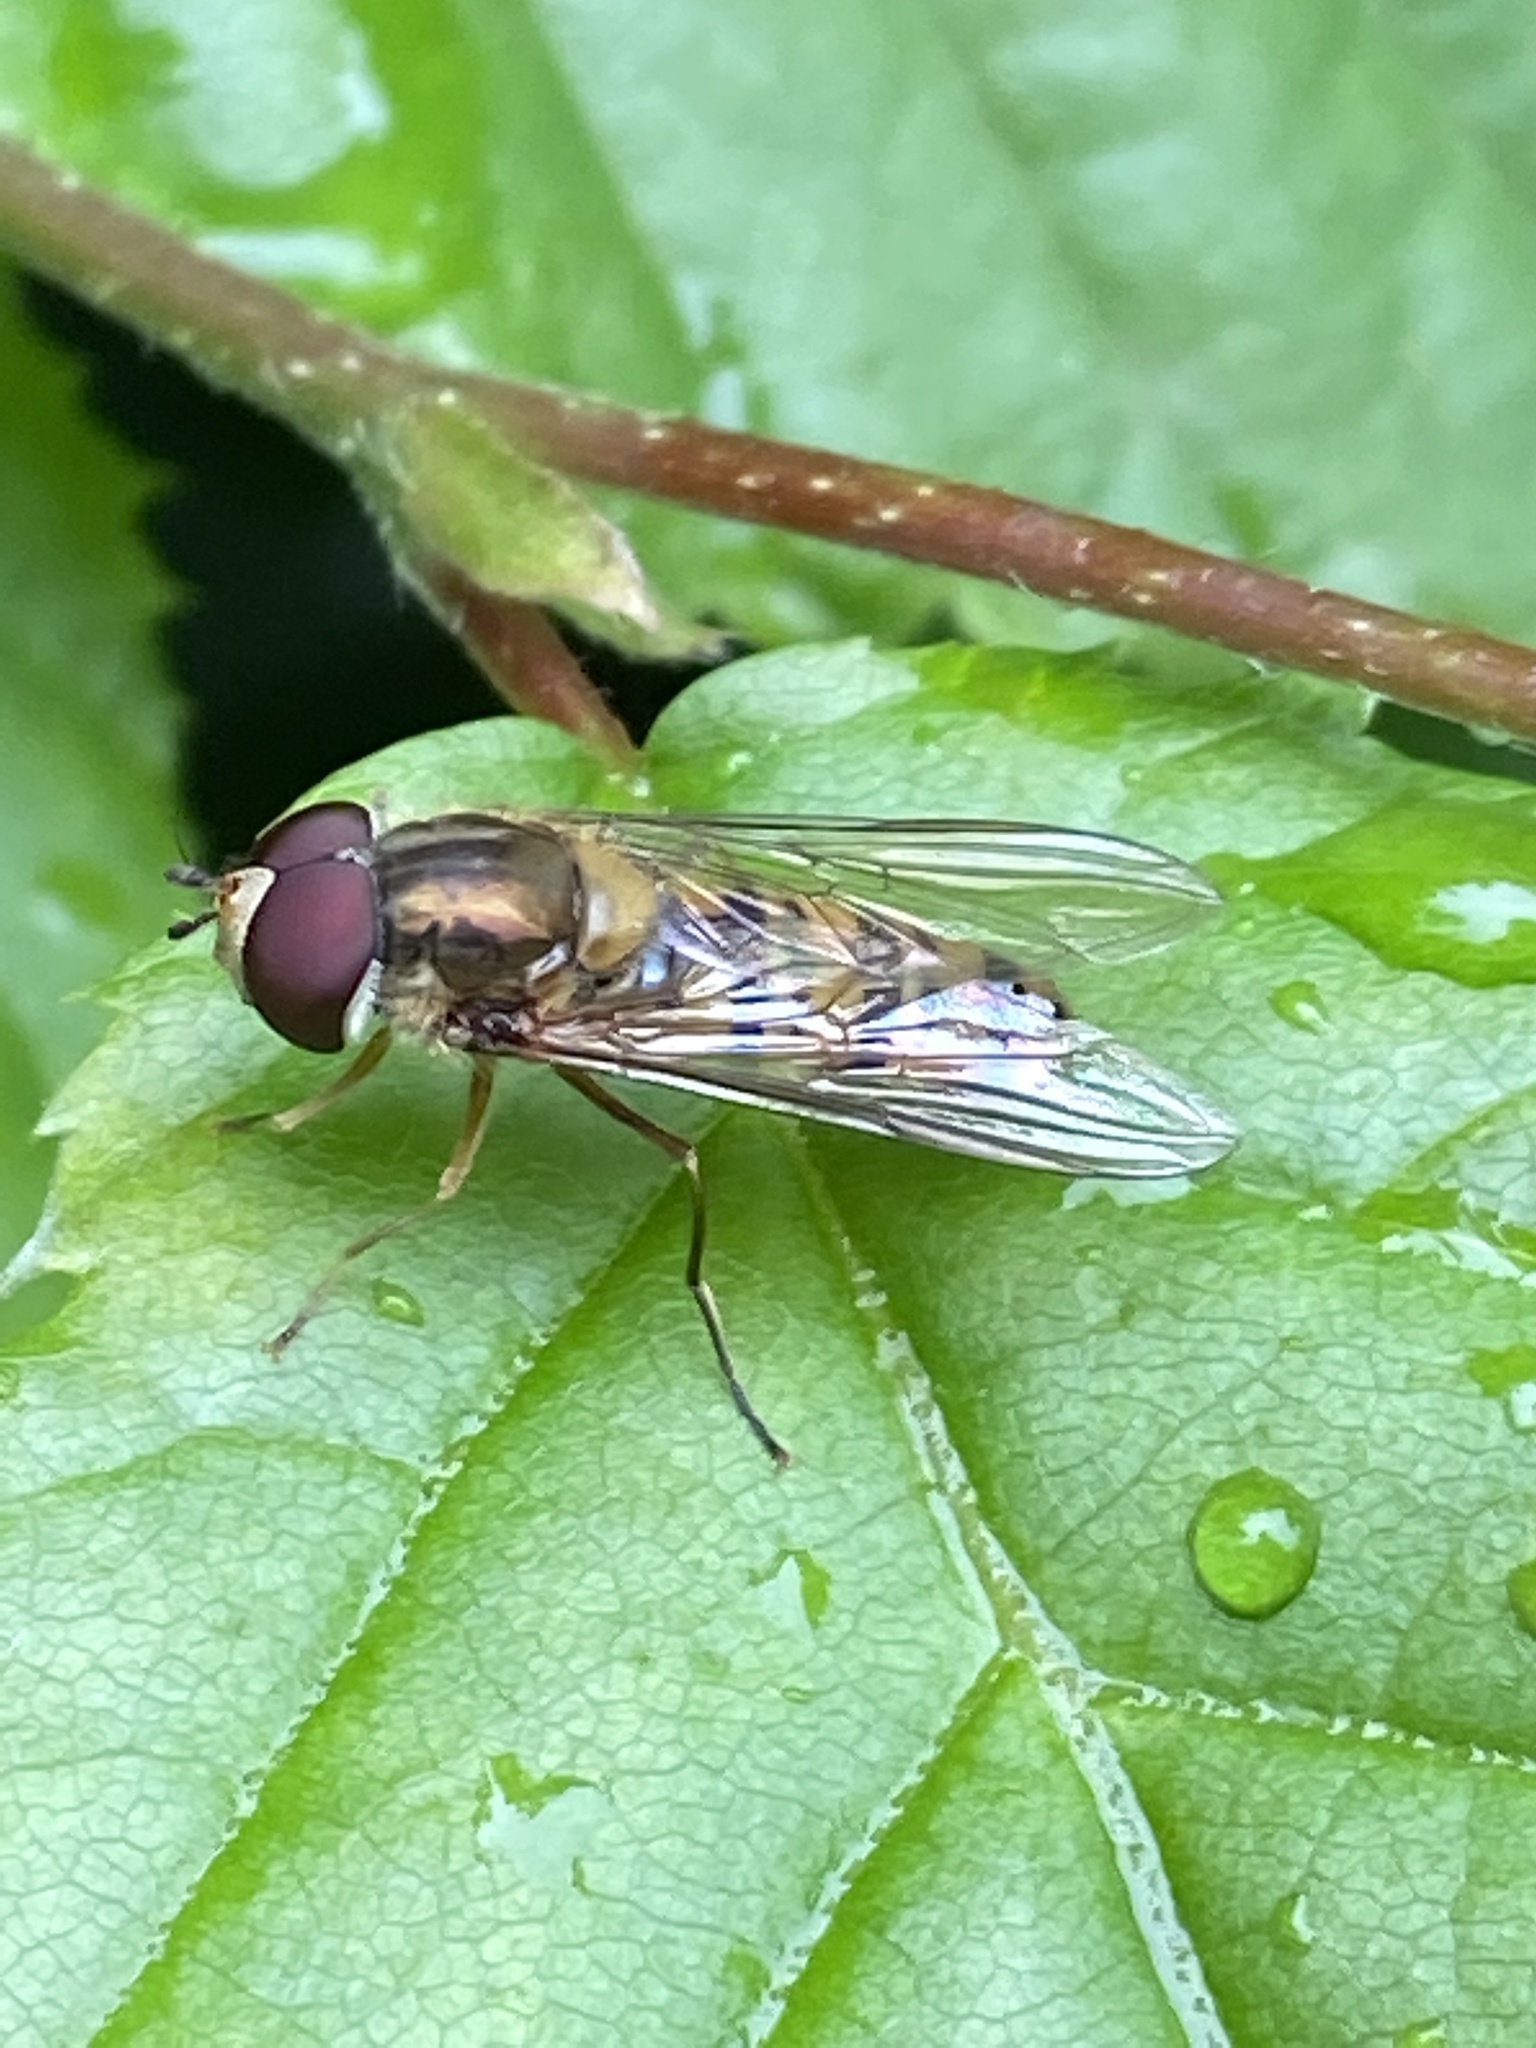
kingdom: Animalia
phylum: Arthropoda
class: Insecta
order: Diptera
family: Syrphidae
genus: Episyrphus
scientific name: Episyrphus balteatus
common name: Marmalade hoverfly
